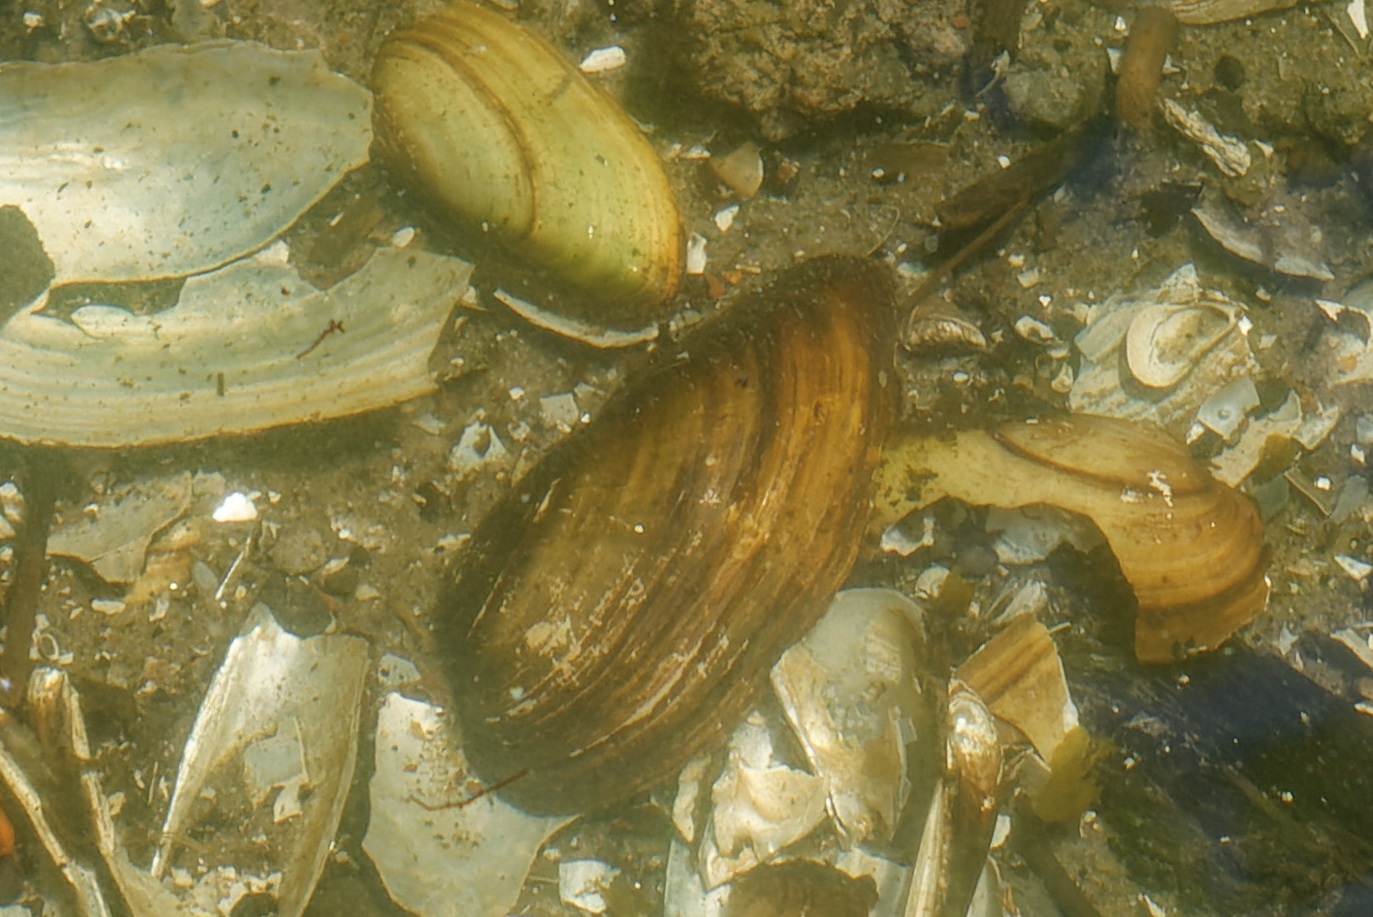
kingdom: Animalia
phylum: Mollusca
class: Bivalvia
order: Unionida
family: Unionidae
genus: Unio
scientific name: Unio tumidus
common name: Swollen river mussel
